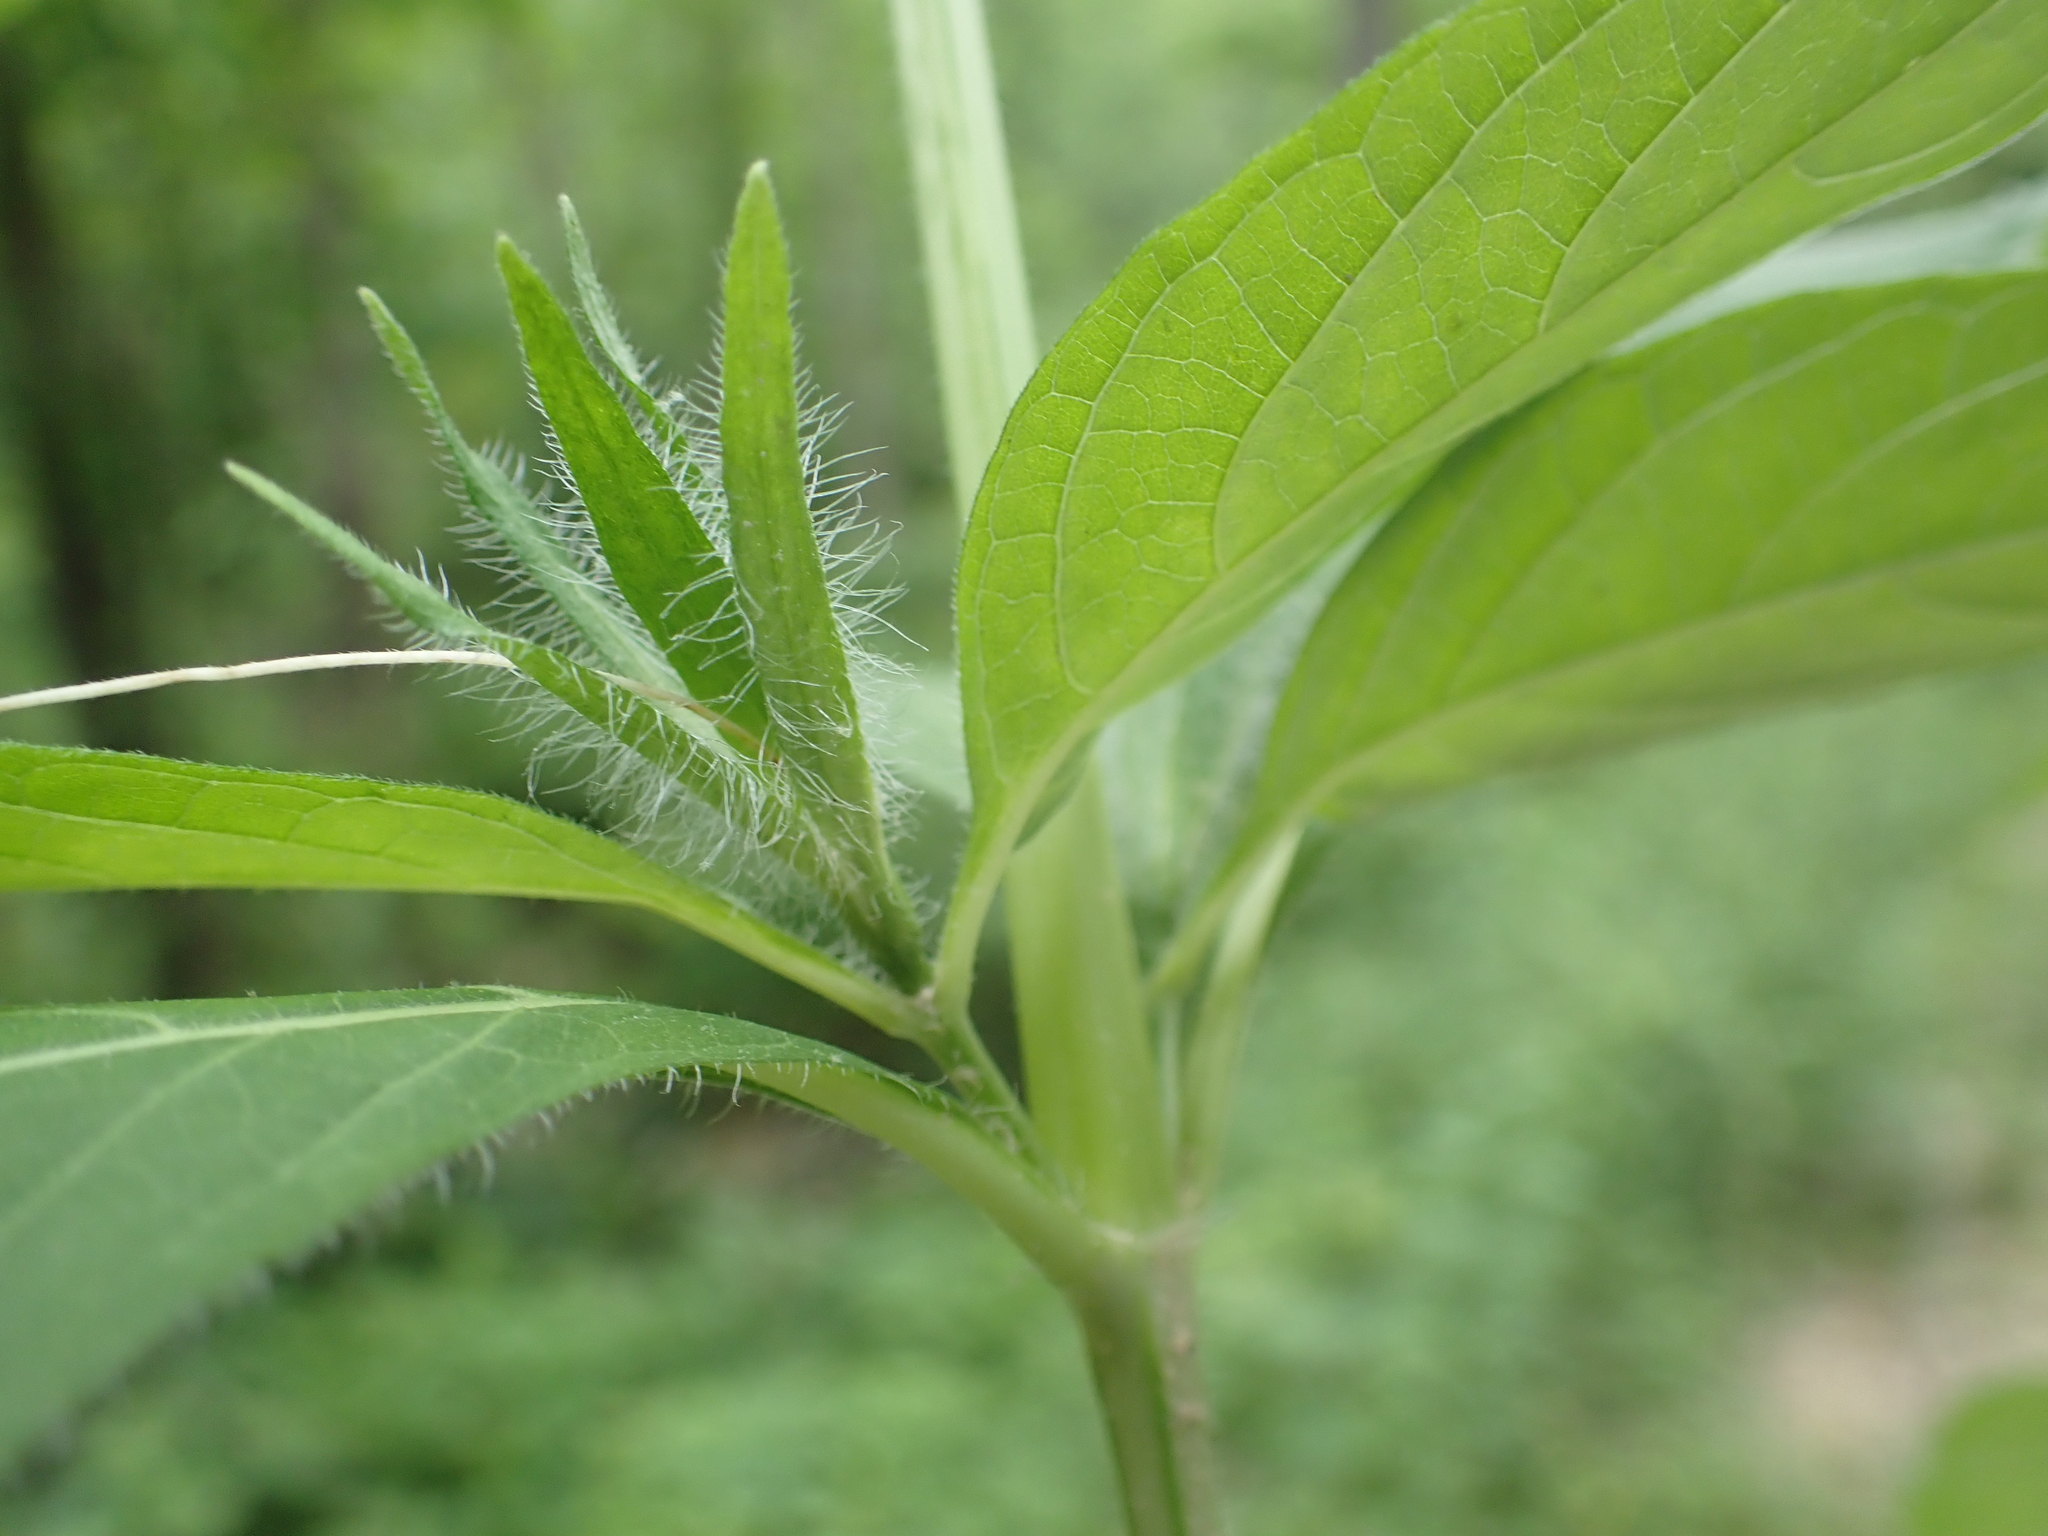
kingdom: Plantae
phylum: Tracheophyta
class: Magnoliopsida
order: Lamiales
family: Acanthaceae
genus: Ruellia
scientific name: Ruellia strepens
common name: Limestone wild petunia
